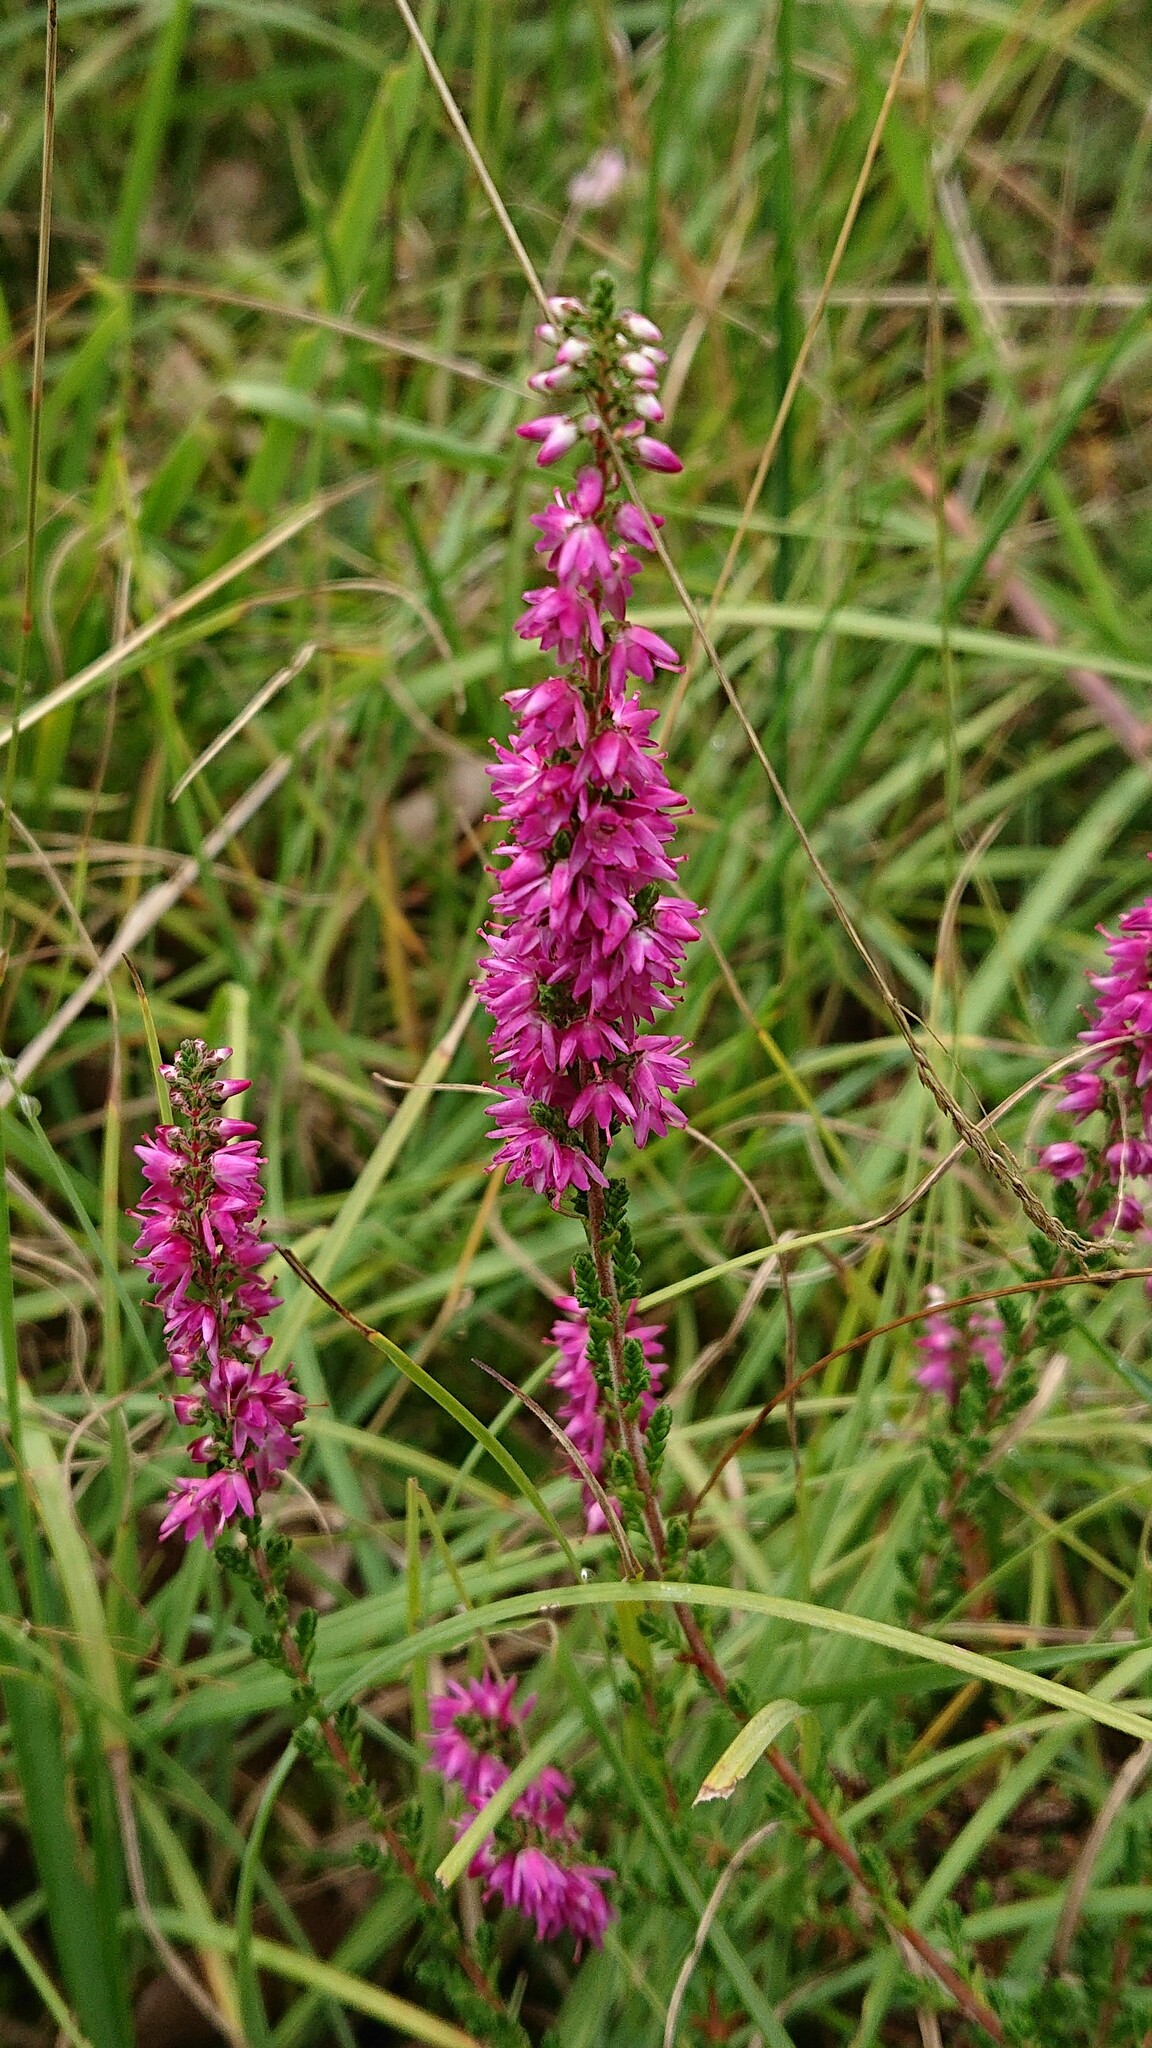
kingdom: Plantae
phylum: Tracheophyta
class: Magnoliopsida
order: Ericales
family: Ericaceae
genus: Calluna
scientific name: Calluna vulgaris
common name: Heather
